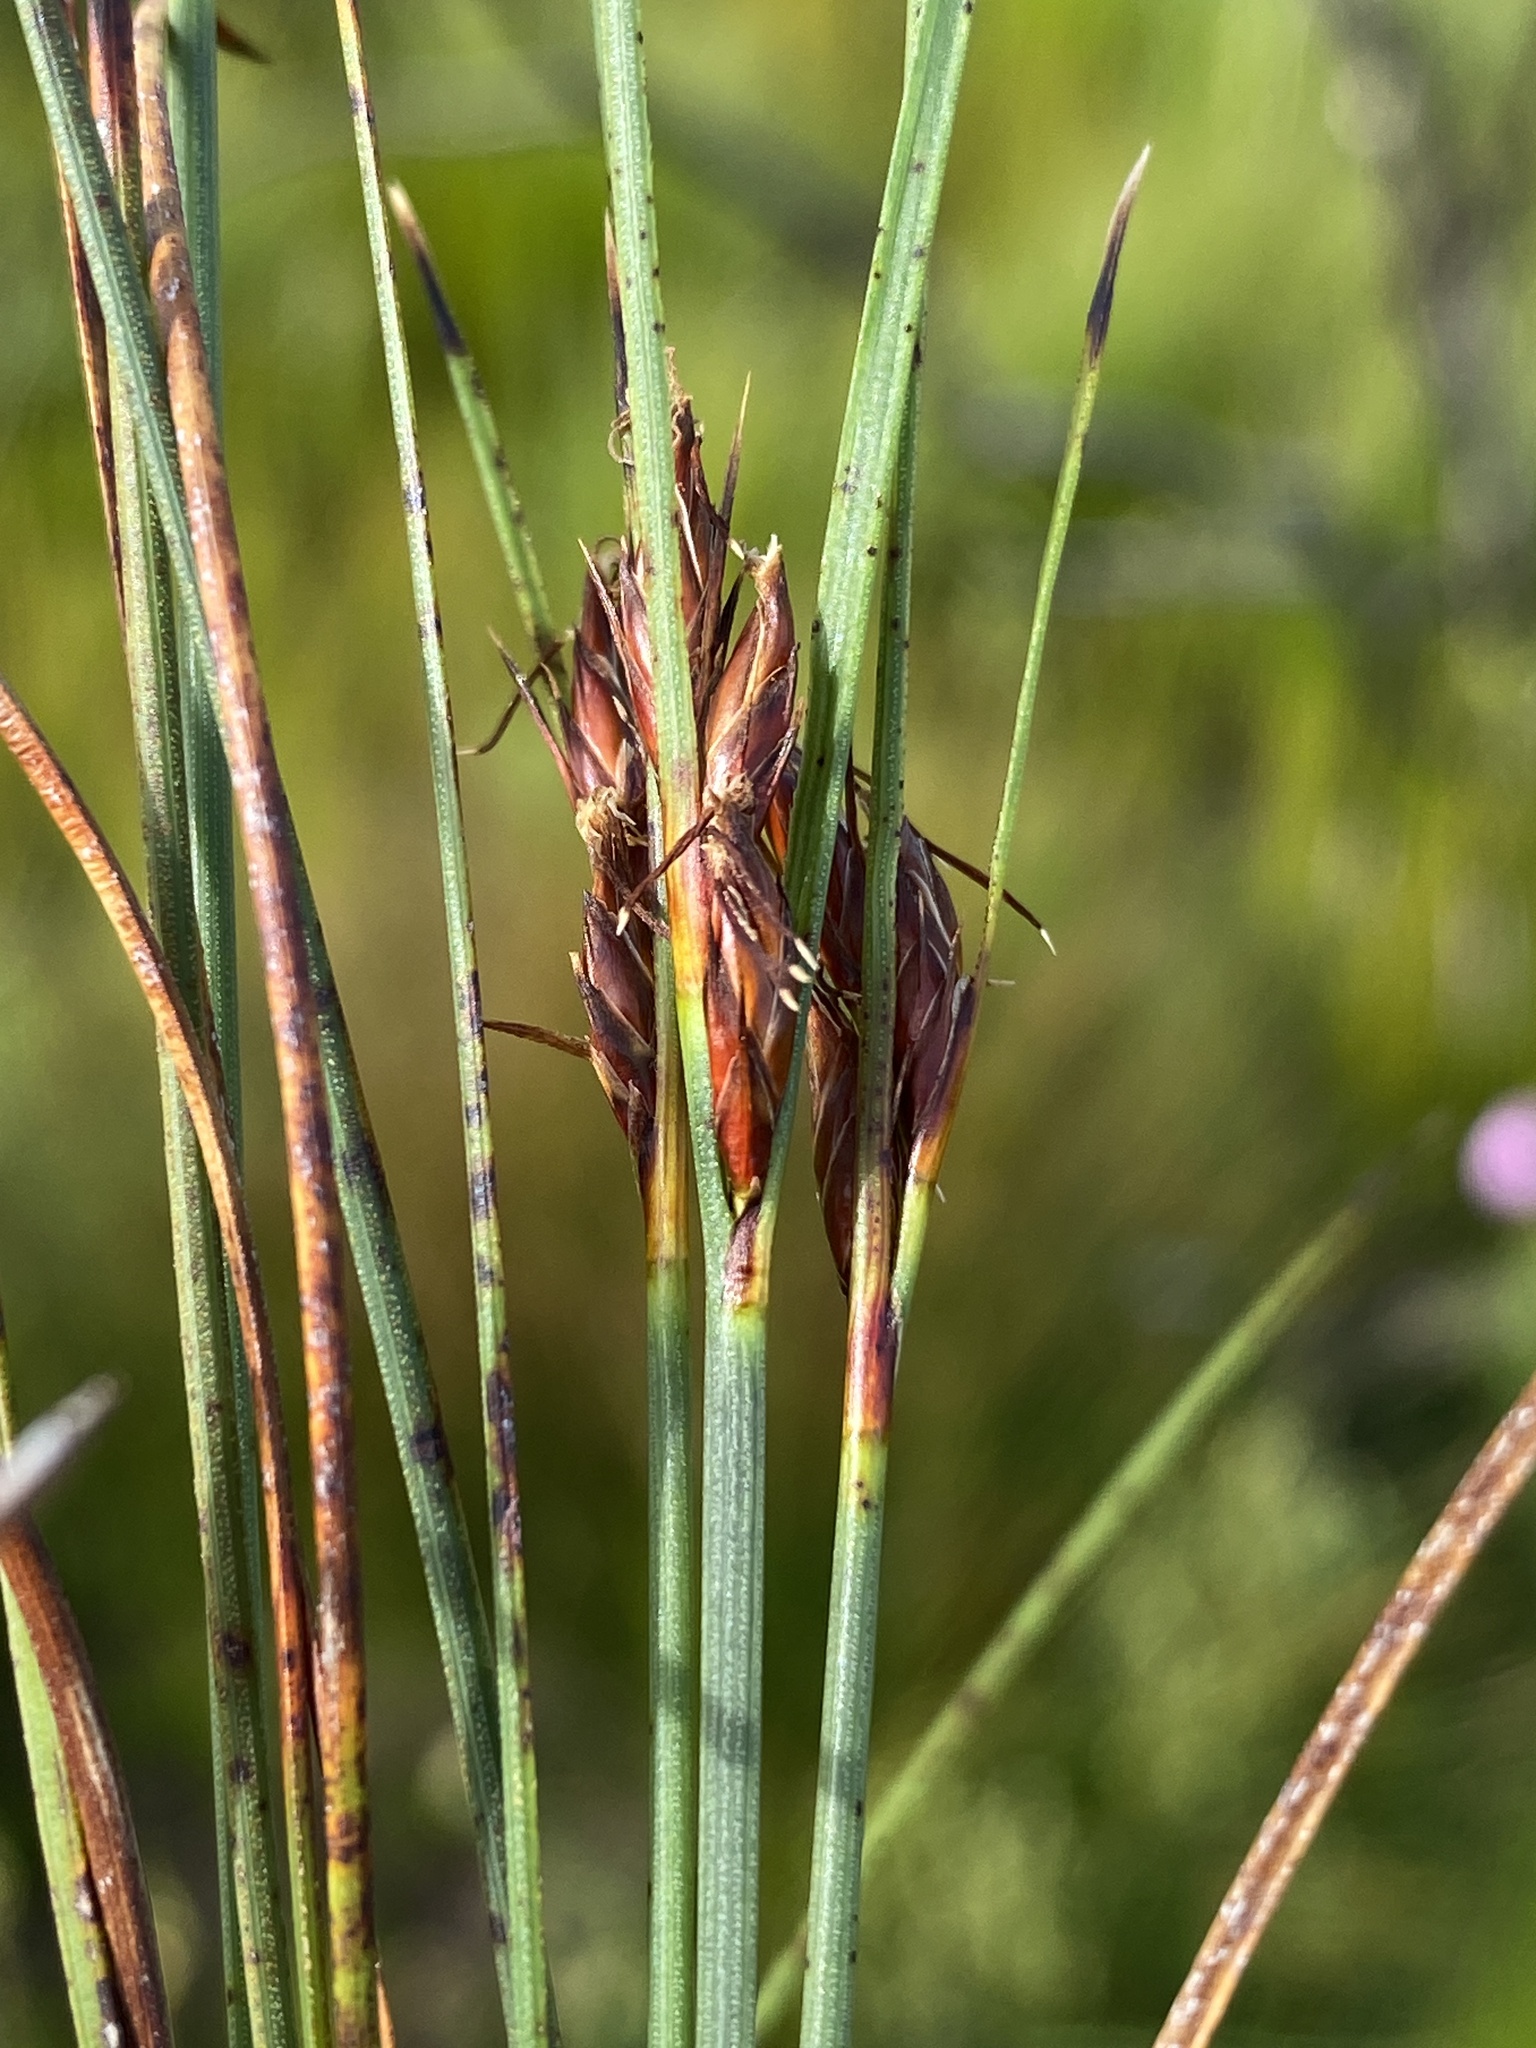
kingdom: Plantae
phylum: Tracheophyta
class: Liliopsida
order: Poales
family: Cyperaceae
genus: Schoenus
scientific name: Schoenus arenicola
